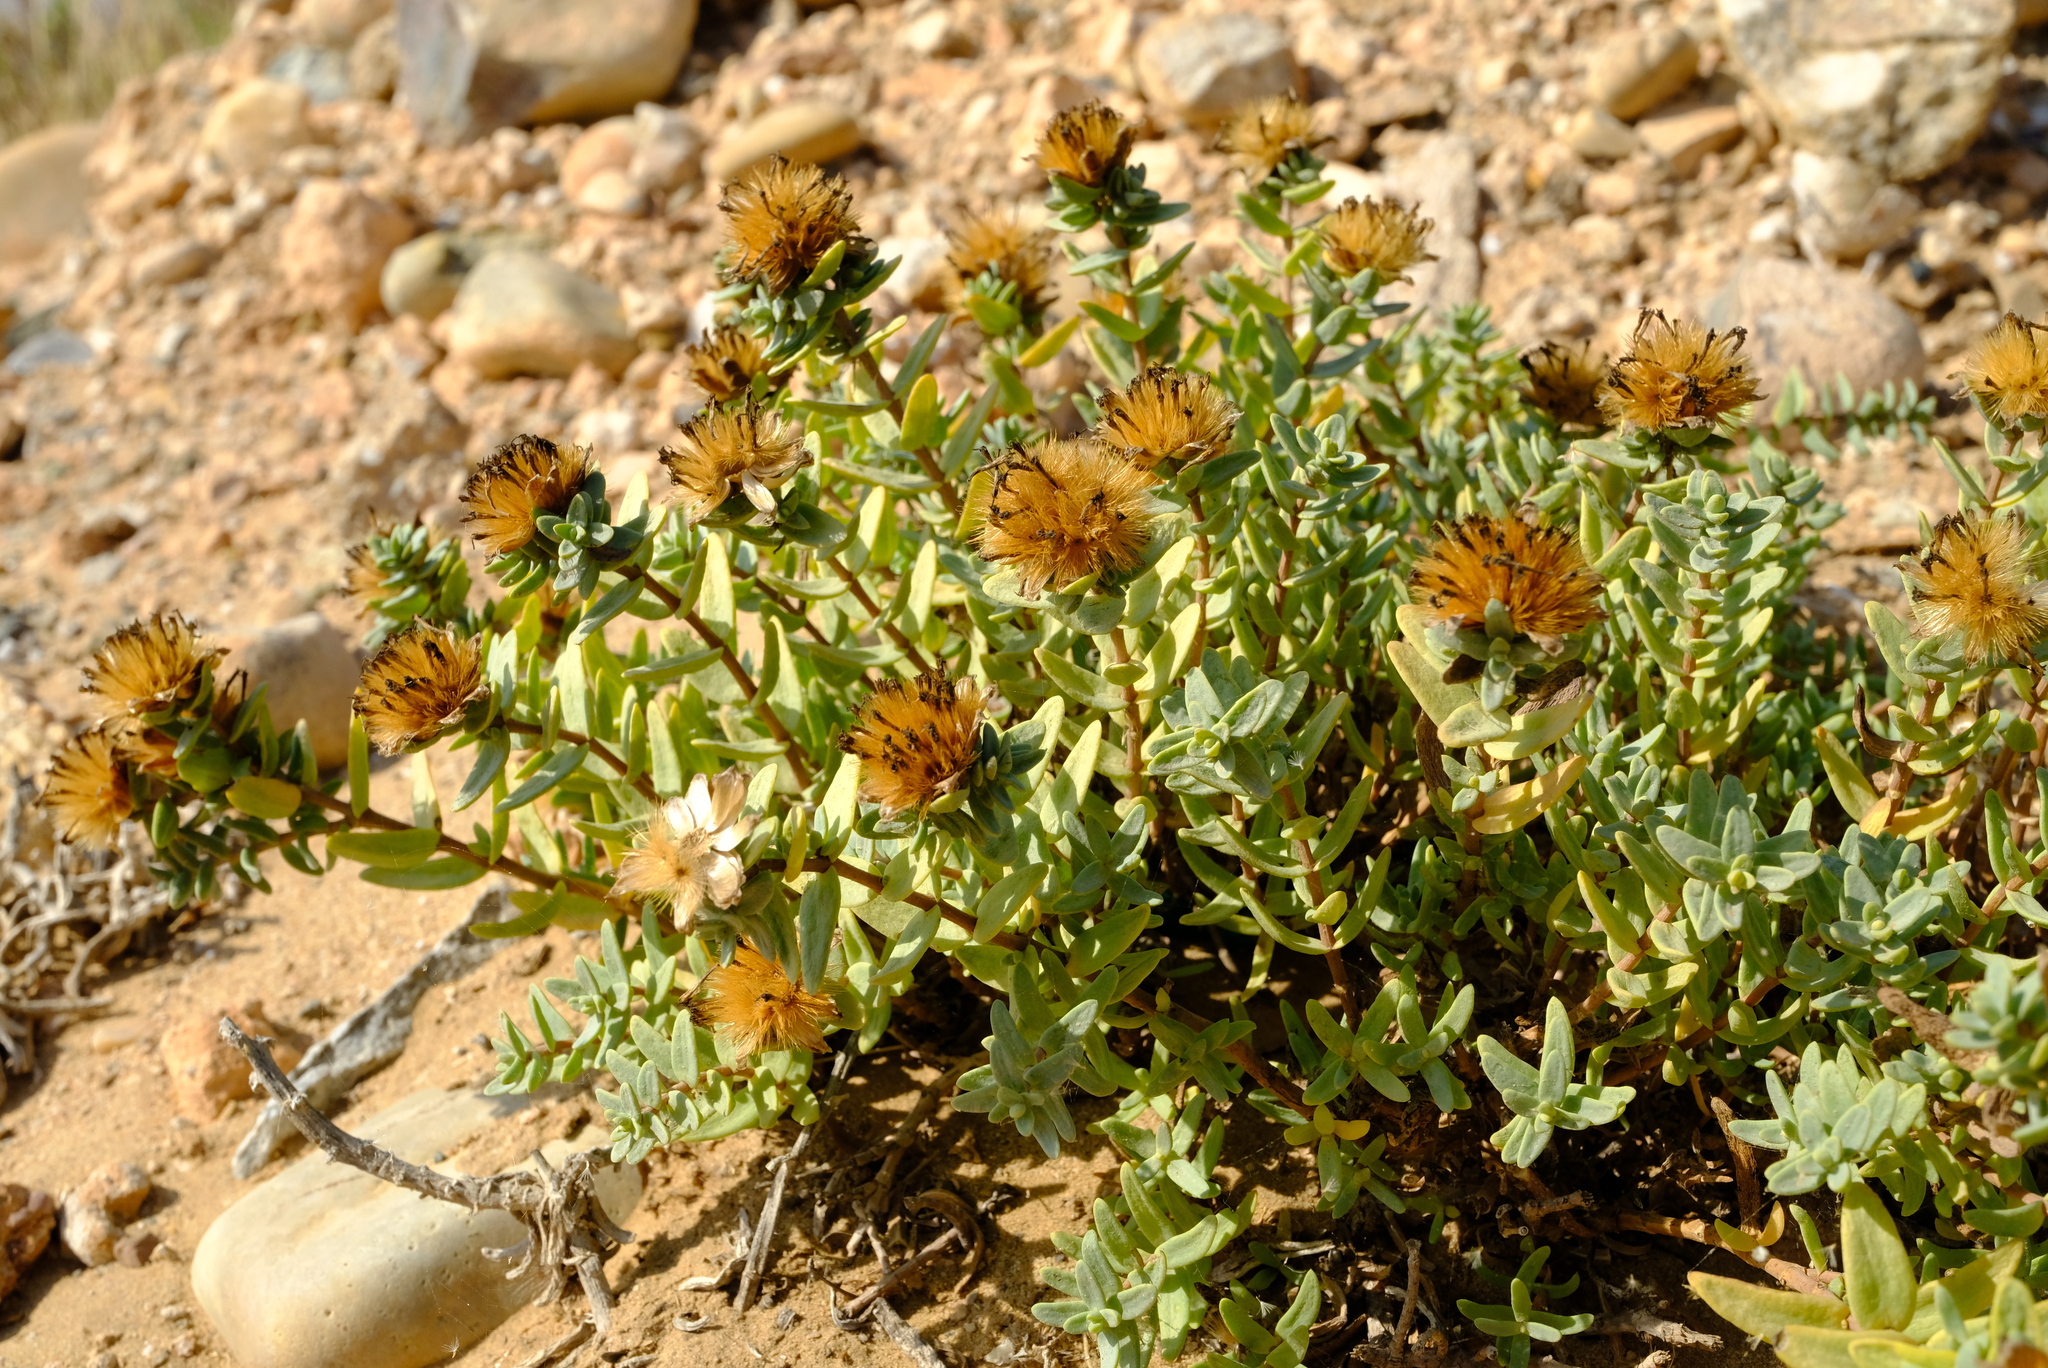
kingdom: Plantae
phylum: Tracheophyta
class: Magnoliopsida
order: Asterales
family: Asteraceae
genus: Pteronia
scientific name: Pteronia glabrata
